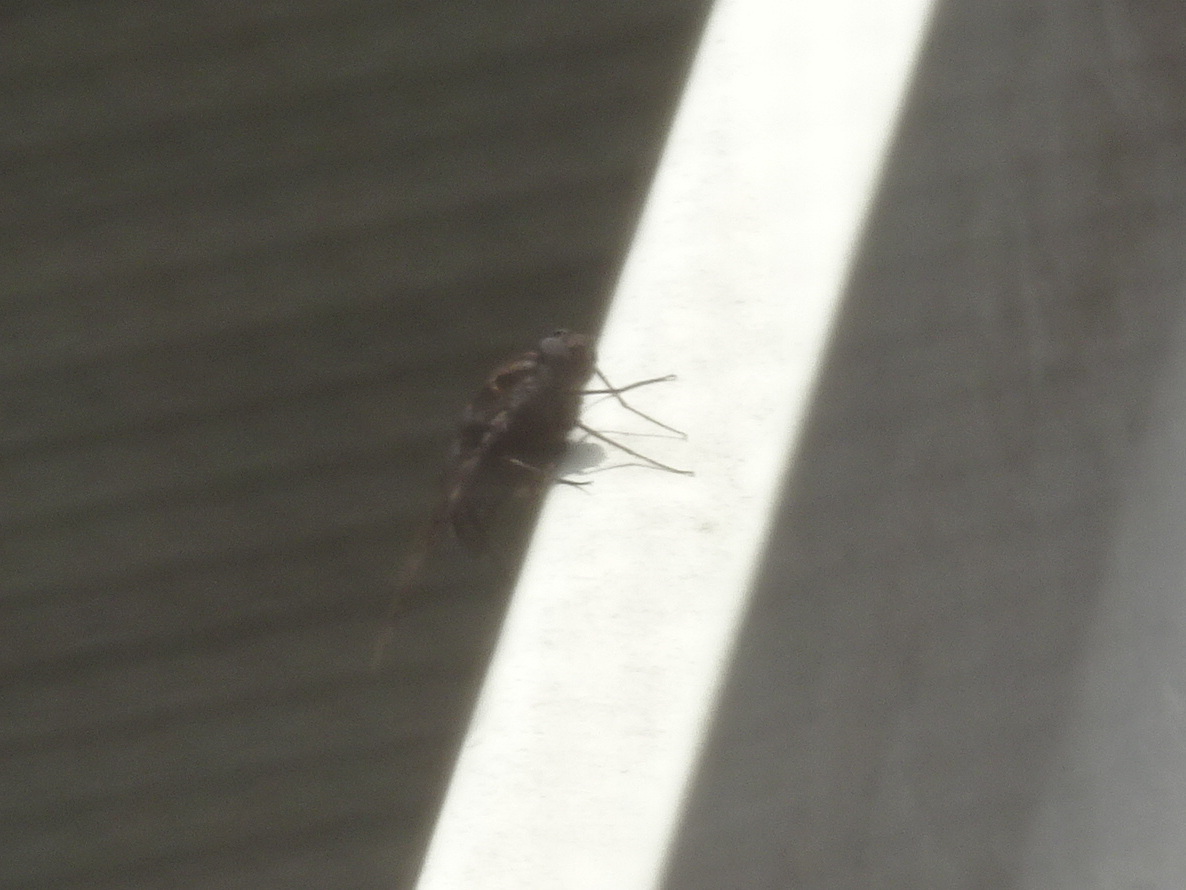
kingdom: Animalia
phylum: Arthropoda
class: Insecta
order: Diptera
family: Bombyliidae
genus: Xenox
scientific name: Xenox tigrinus
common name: Tiger bee fly
